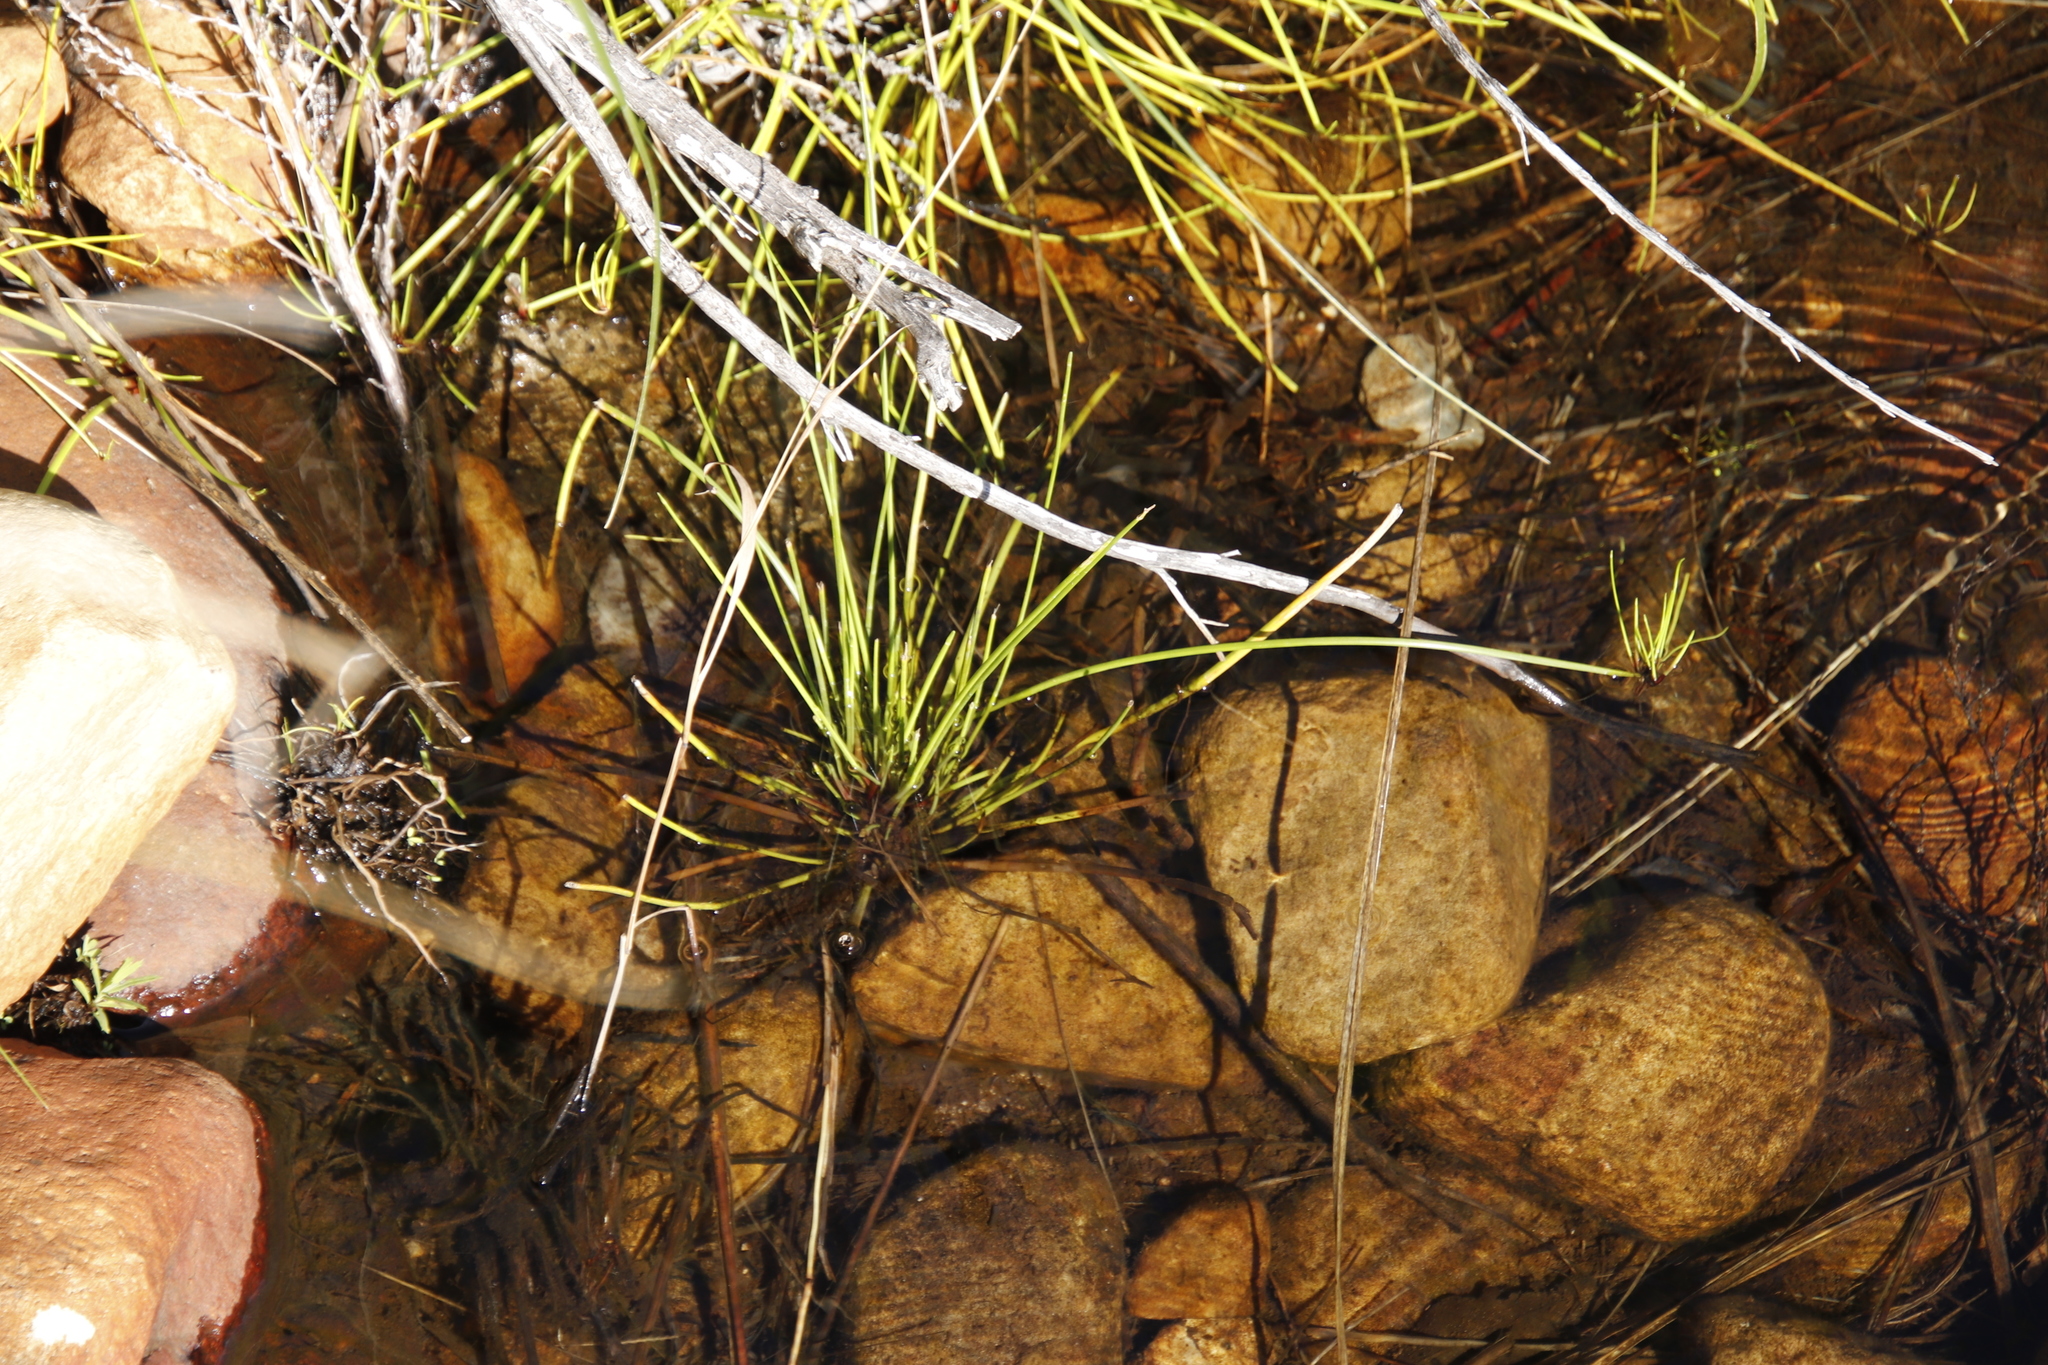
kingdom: Plantae
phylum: Tracheophyta
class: Liliopsida
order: Poales
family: Cyperaceae
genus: Isolepis
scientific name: Isolepis prolifera
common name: Proliferating bulrush
